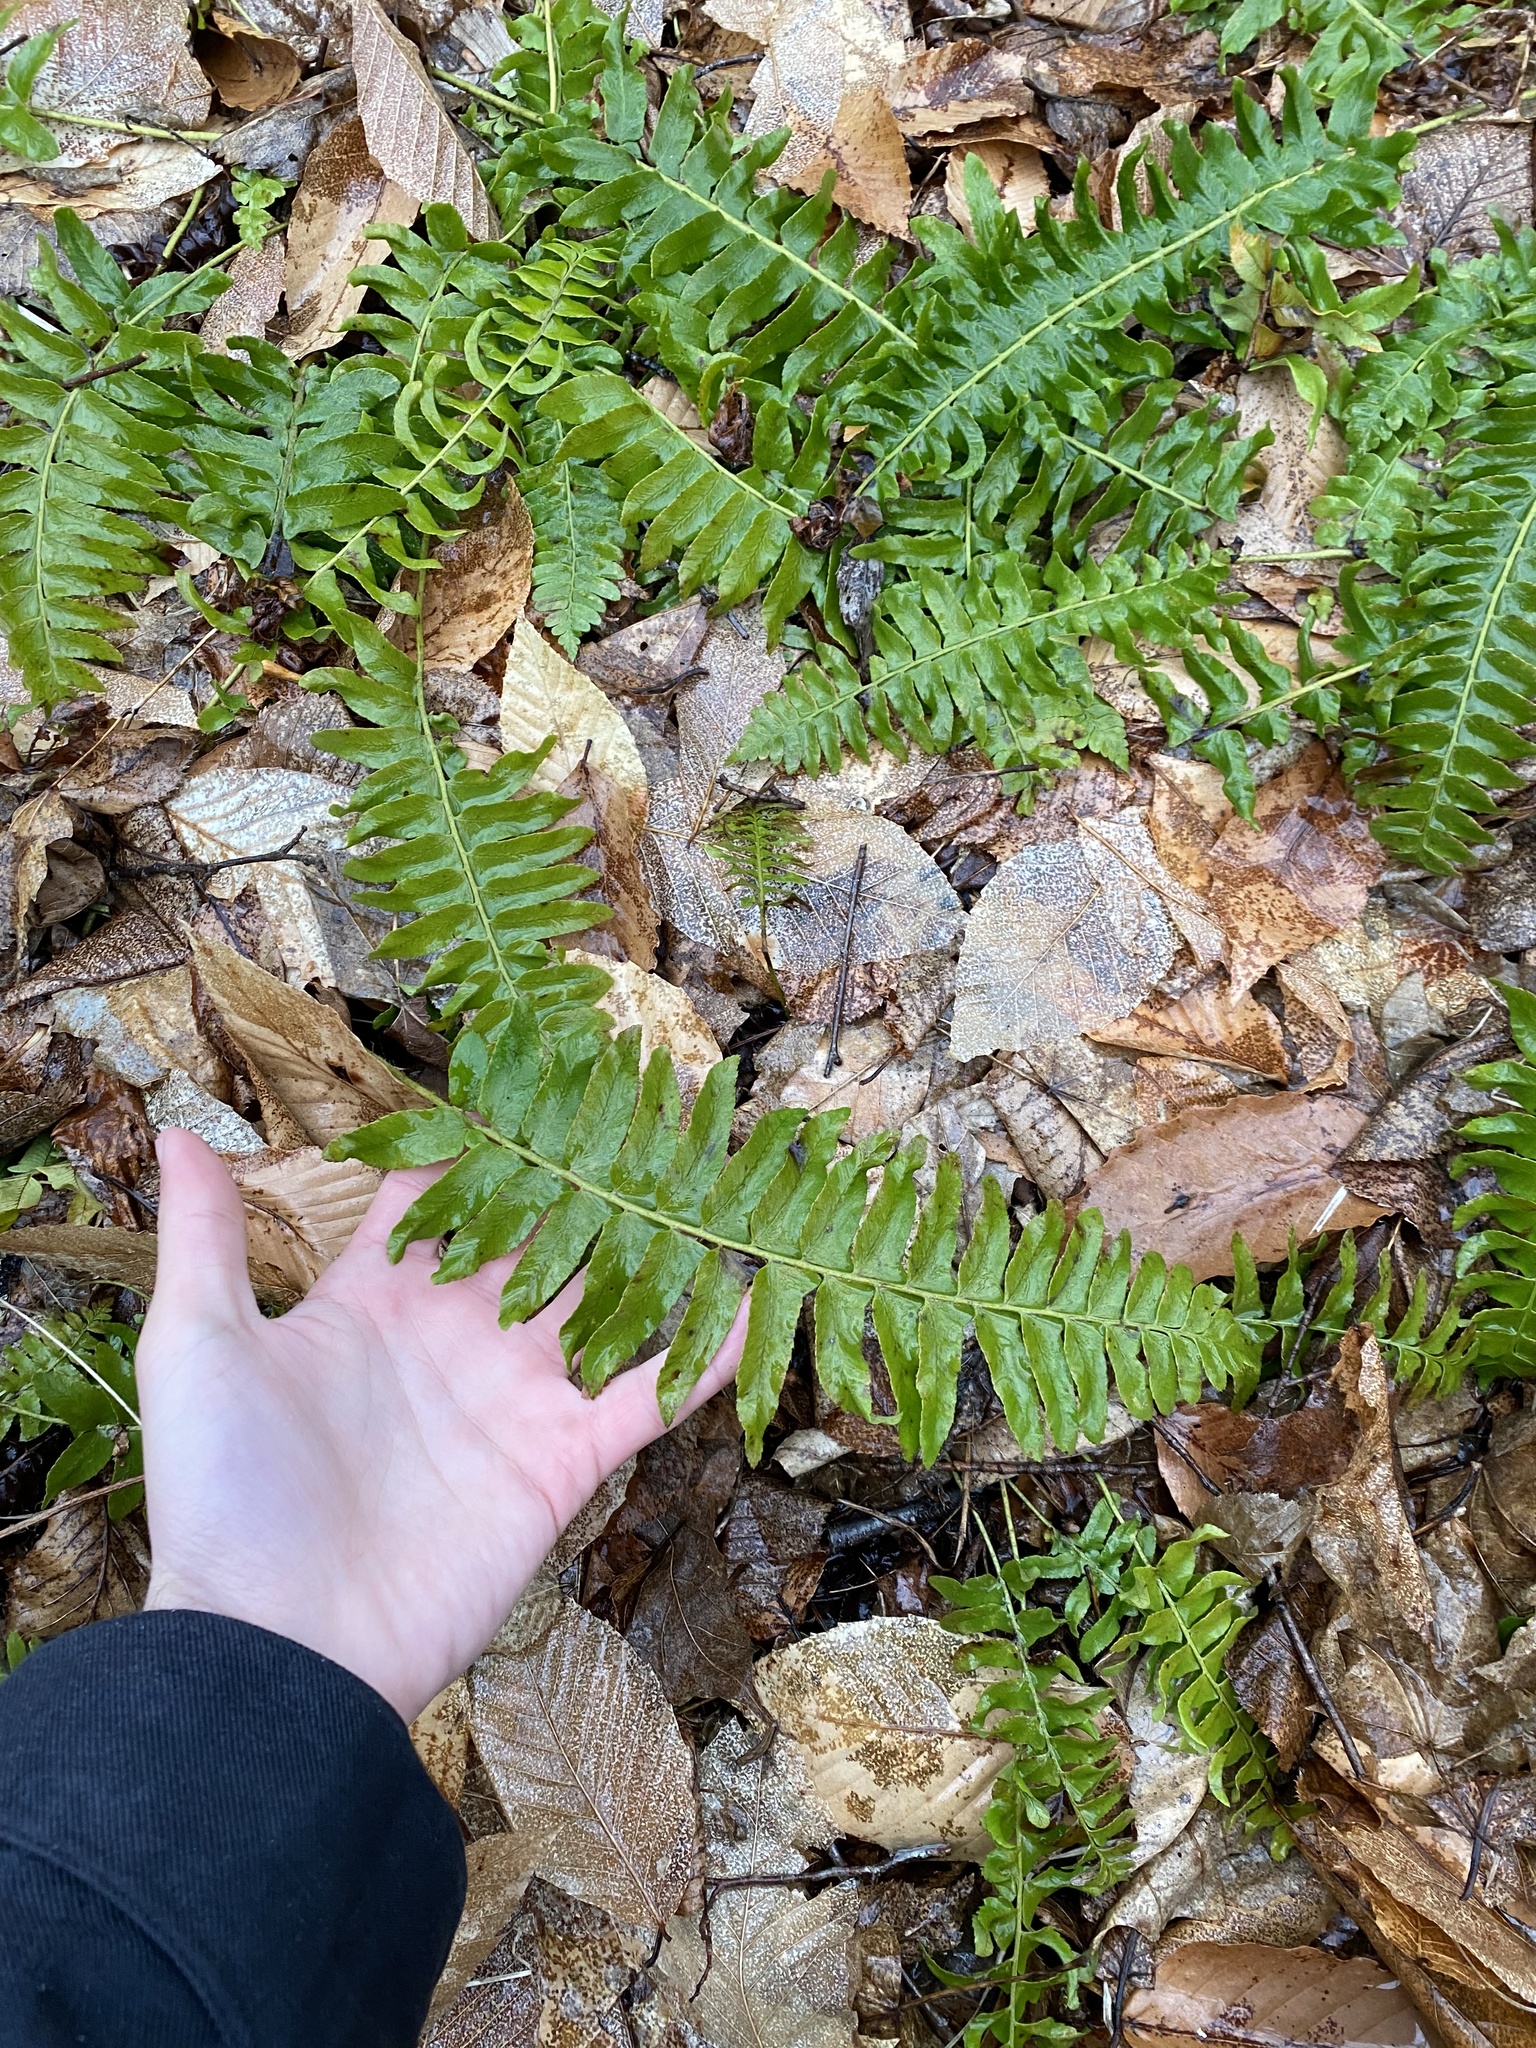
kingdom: Plantae
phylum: Tracheophyta
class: Polypodiopsida
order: Polypodiales
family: Dryopteridaceae
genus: Polystichum
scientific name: Polystichum acrostichoides
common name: Christmas fern
